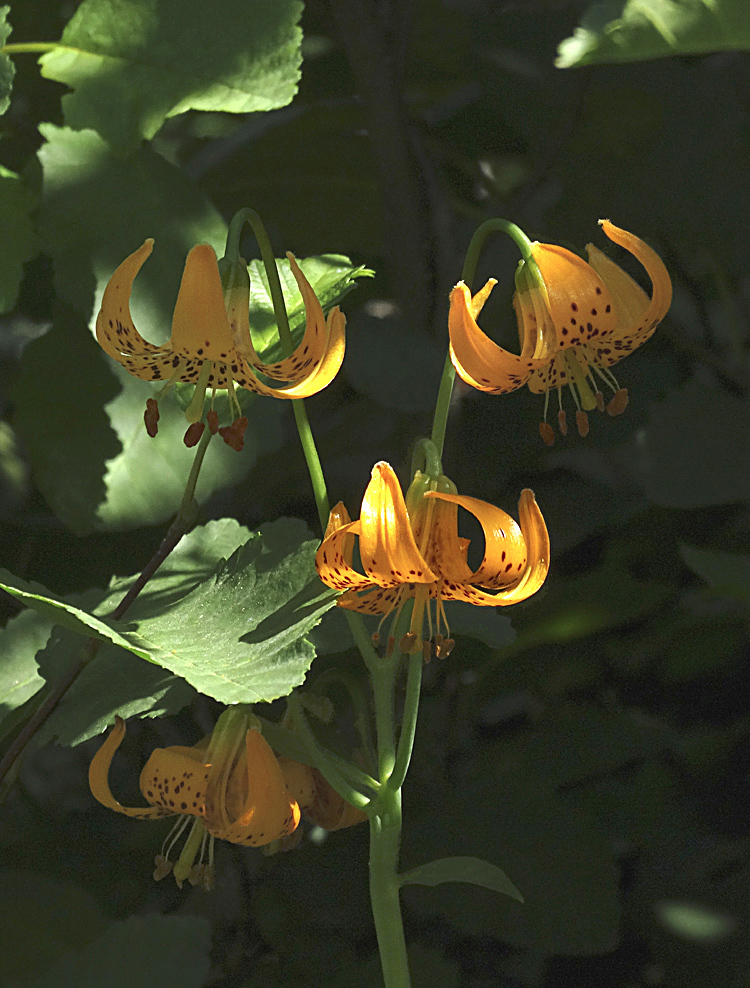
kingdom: Plantae
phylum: Tracheophyta
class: Liliopsida
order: Liliales
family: Liliaceae
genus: Lilium
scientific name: Lilium kelleyanum
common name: Kelley's lily
